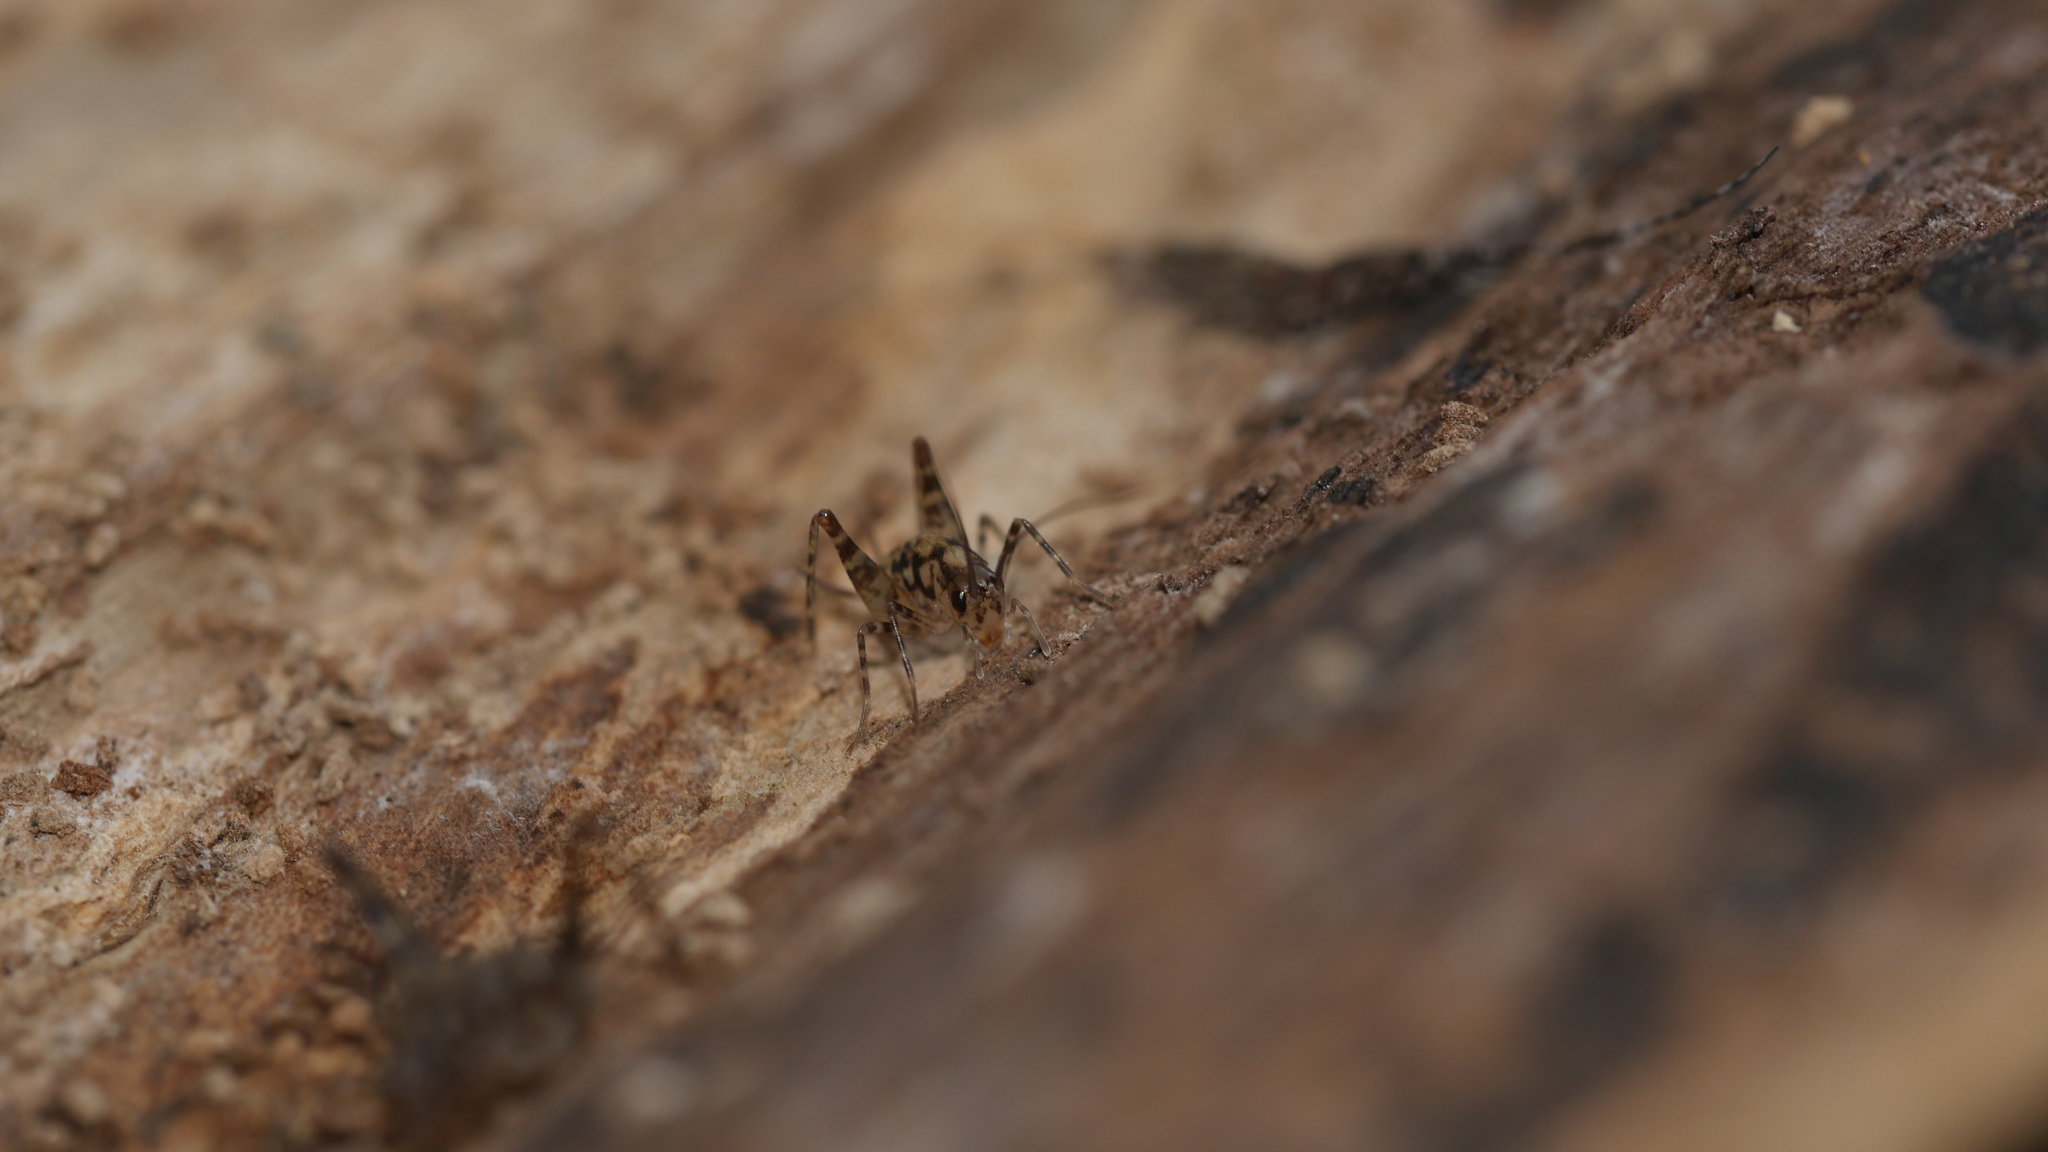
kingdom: Animalia
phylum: Arthropoda
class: Insecta
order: Orthoptera
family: Rhaphidophoridae
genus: Tachycines
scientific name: Tachycines asynamorus
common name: Greenhouse camel cricket
